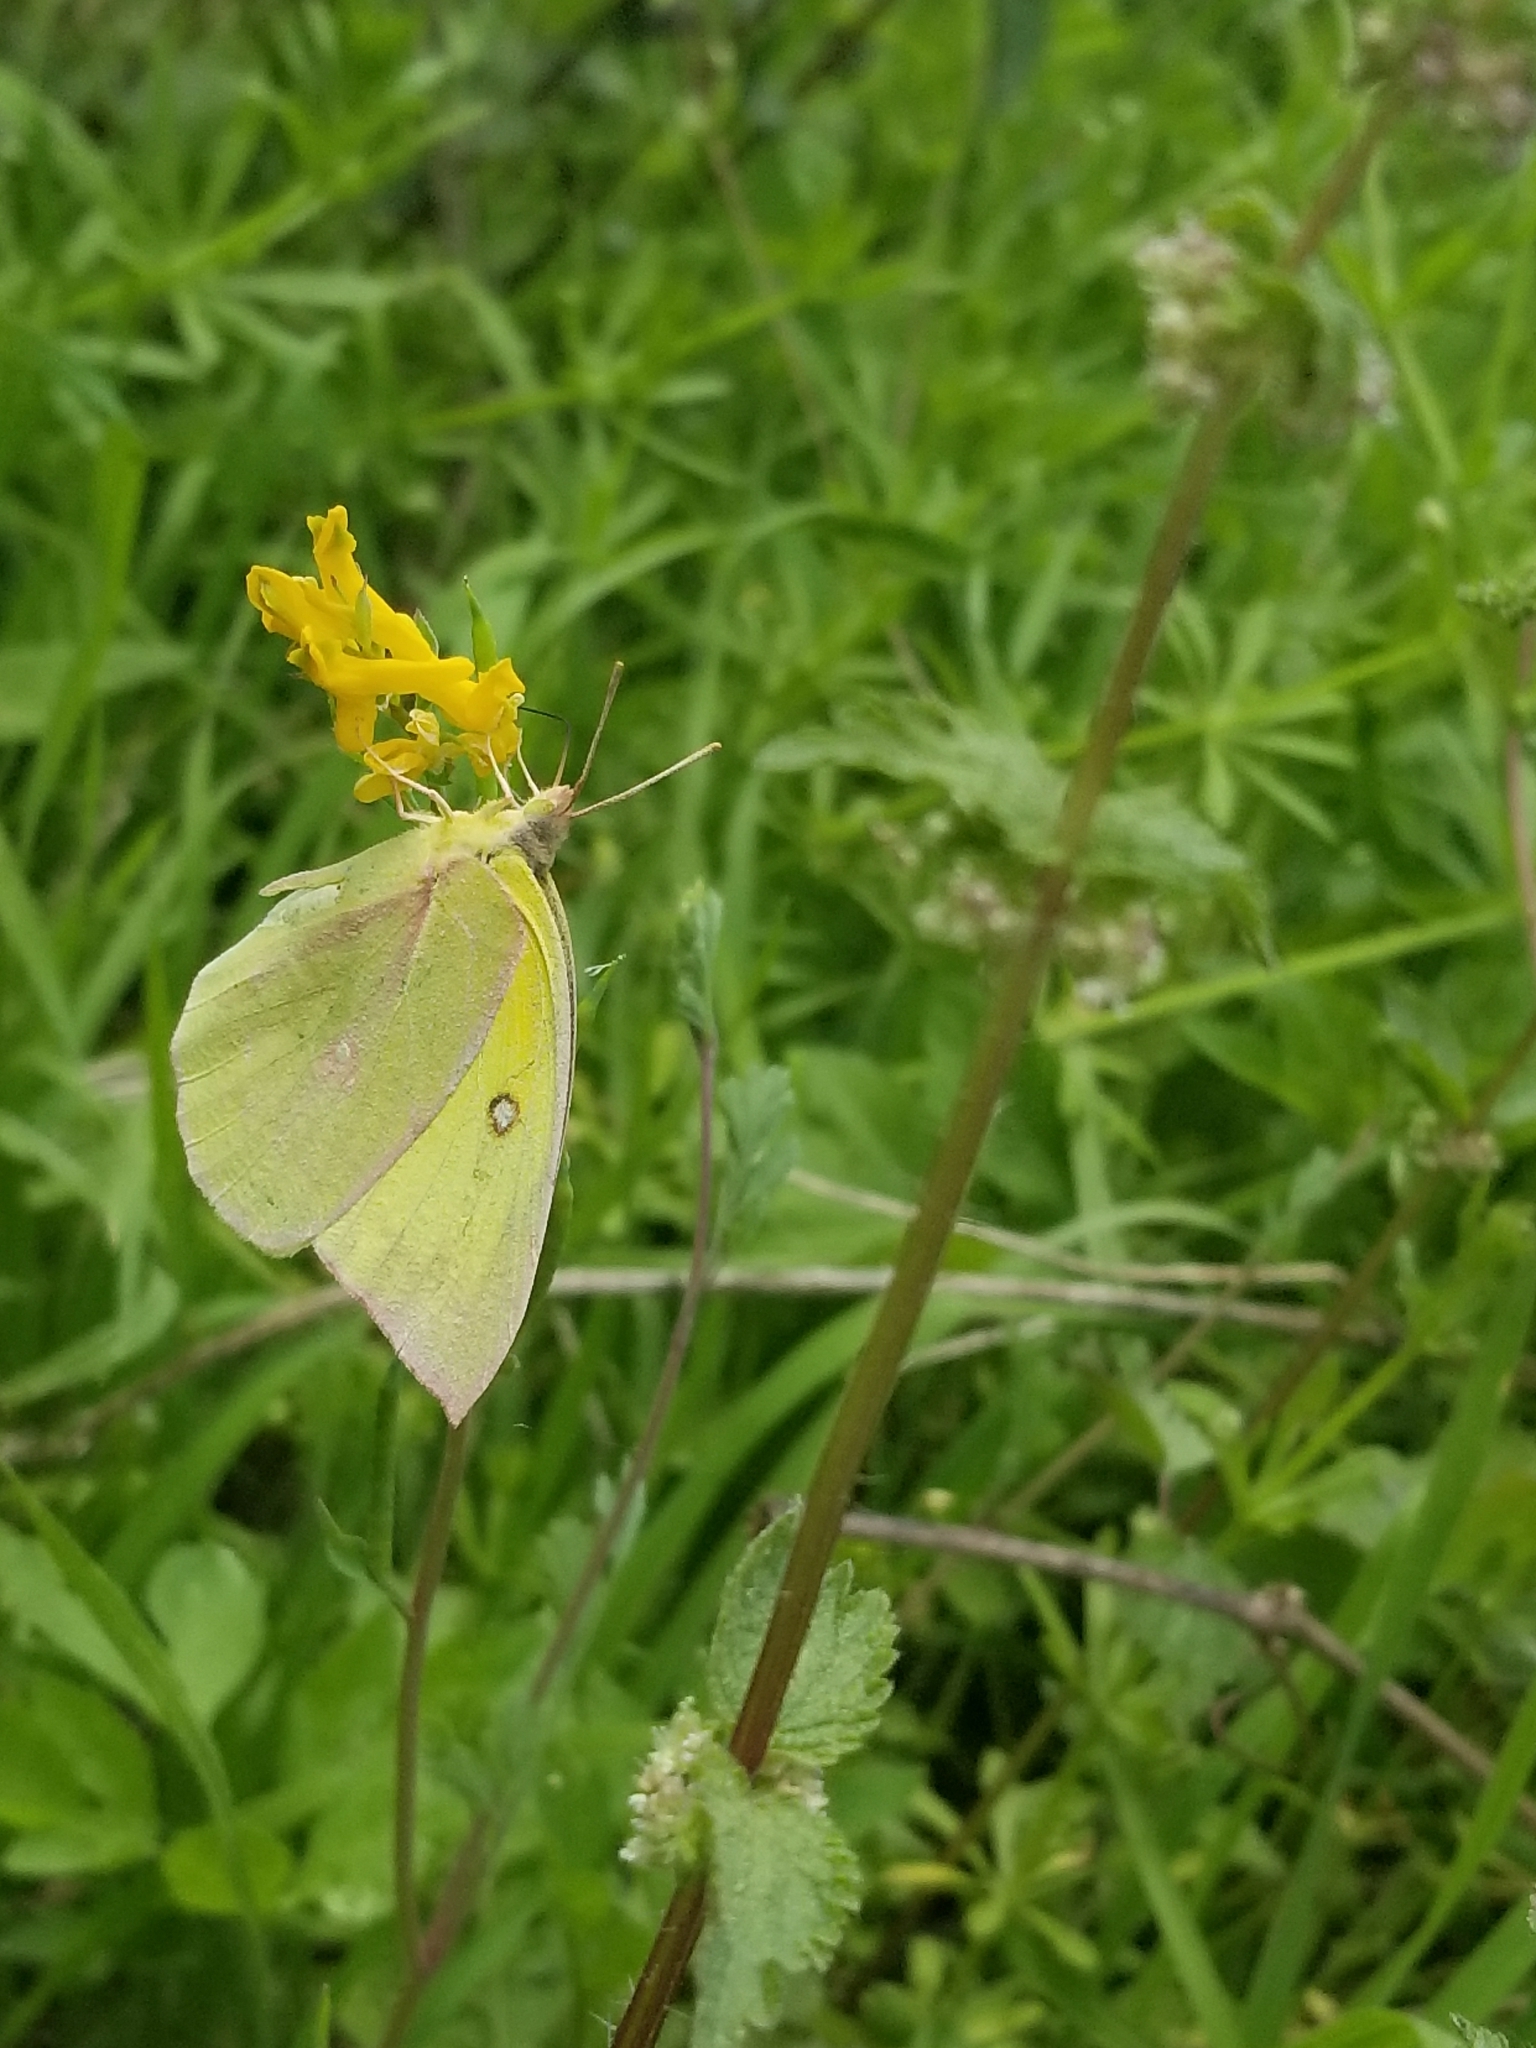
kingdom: Animalia
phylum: Arthropoda
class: Insecta
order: Lepidoptera
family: Pieridae
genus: Zerene
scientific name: Zerene cesonia
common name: Southern dogface
